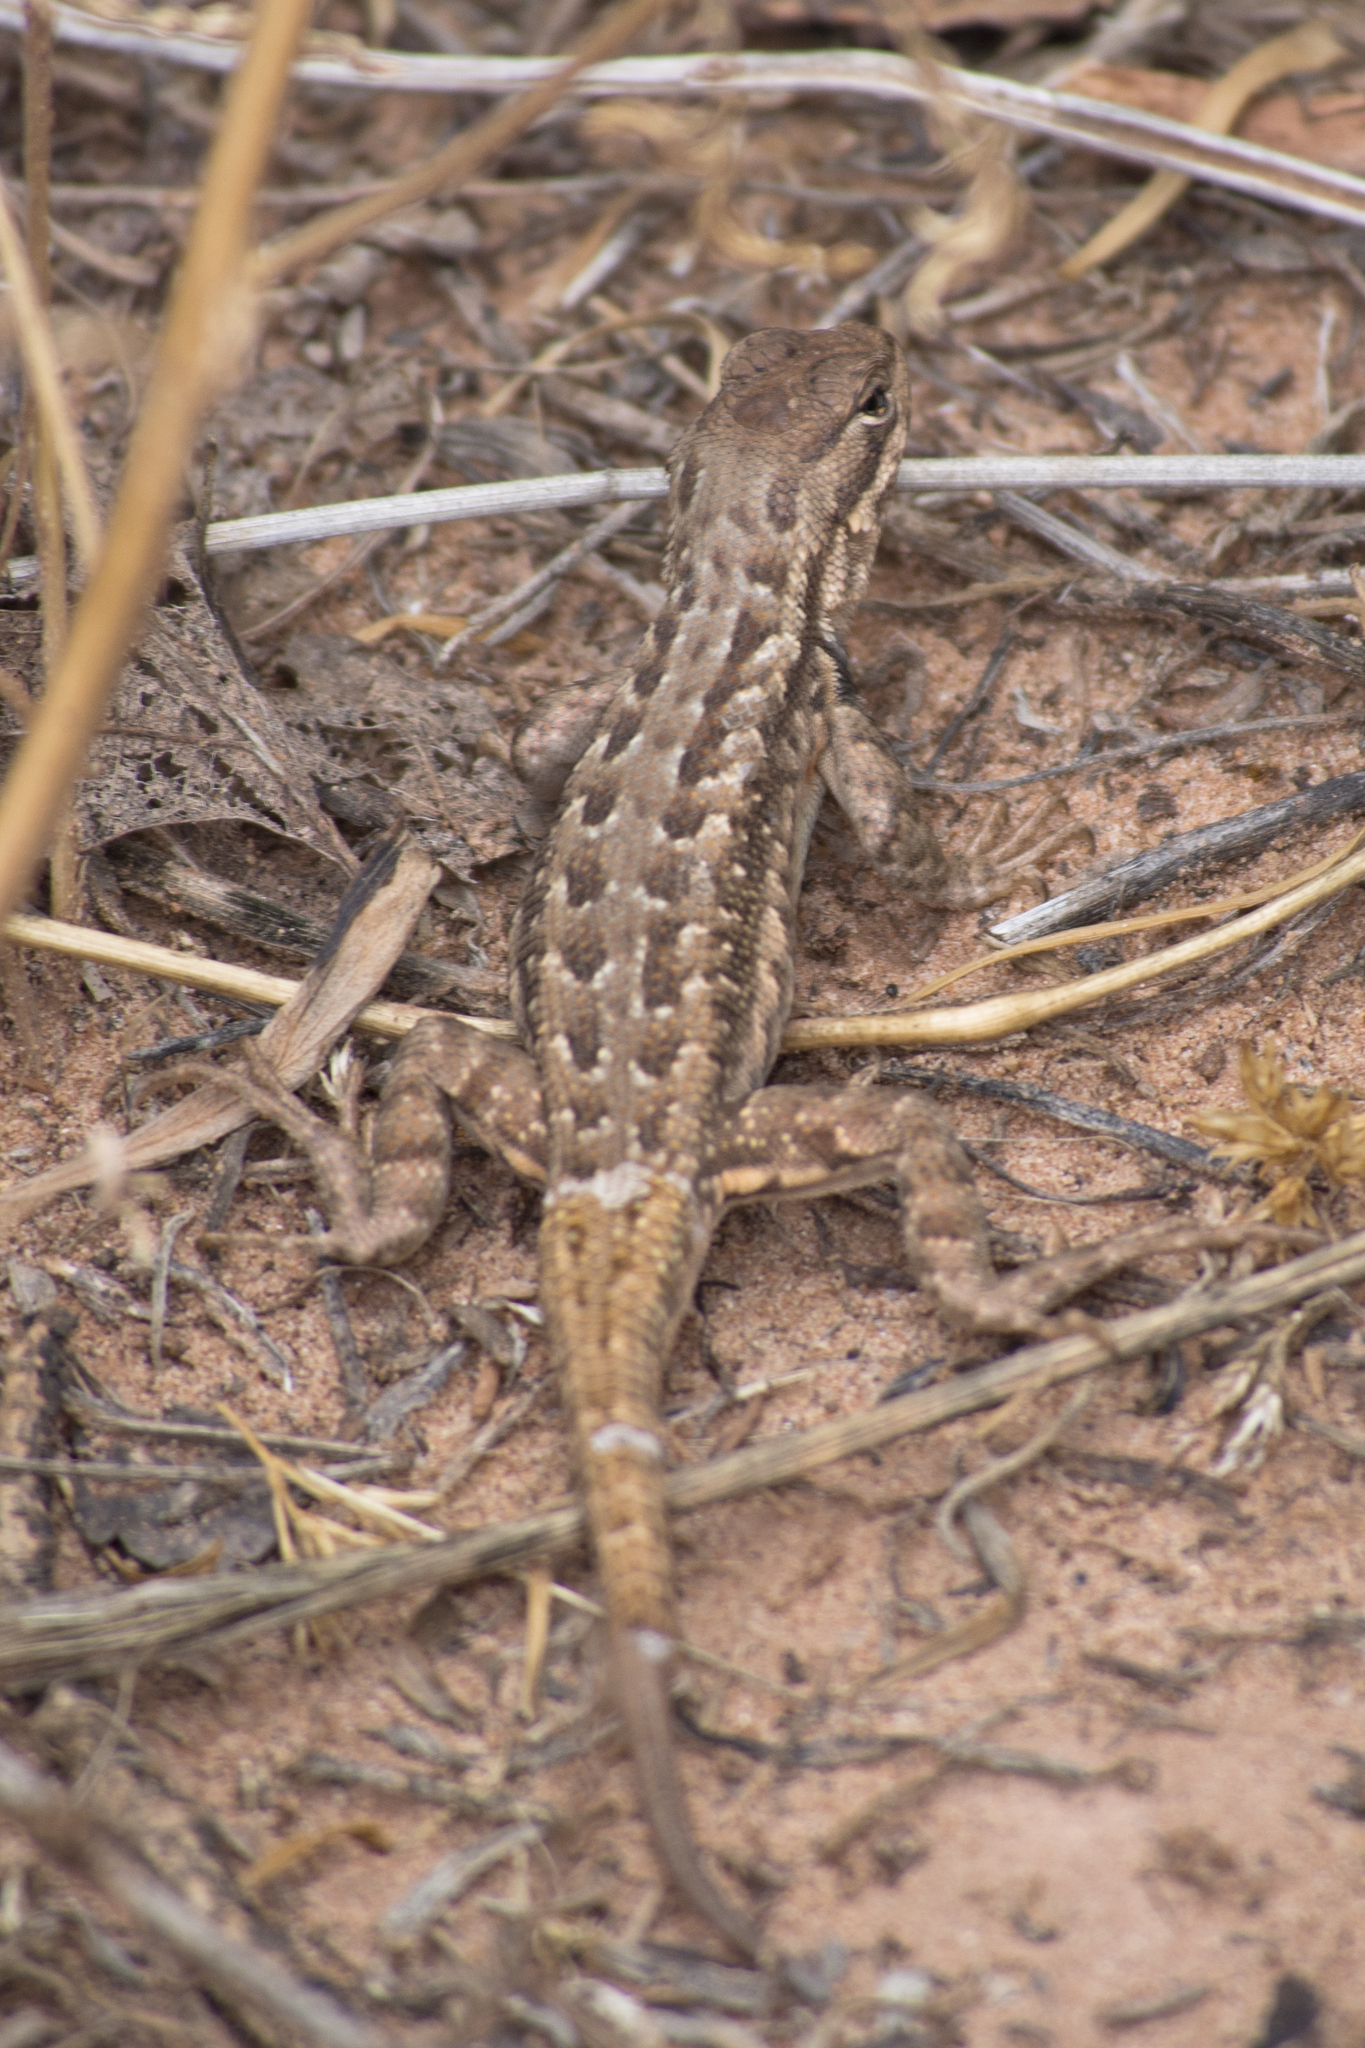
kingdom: Animalia
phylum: Chordata
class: Squamata
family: Phrynosomatidae
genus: Sceloporus
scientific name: Sceloporus graciosus
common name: Sagebrush lizard
